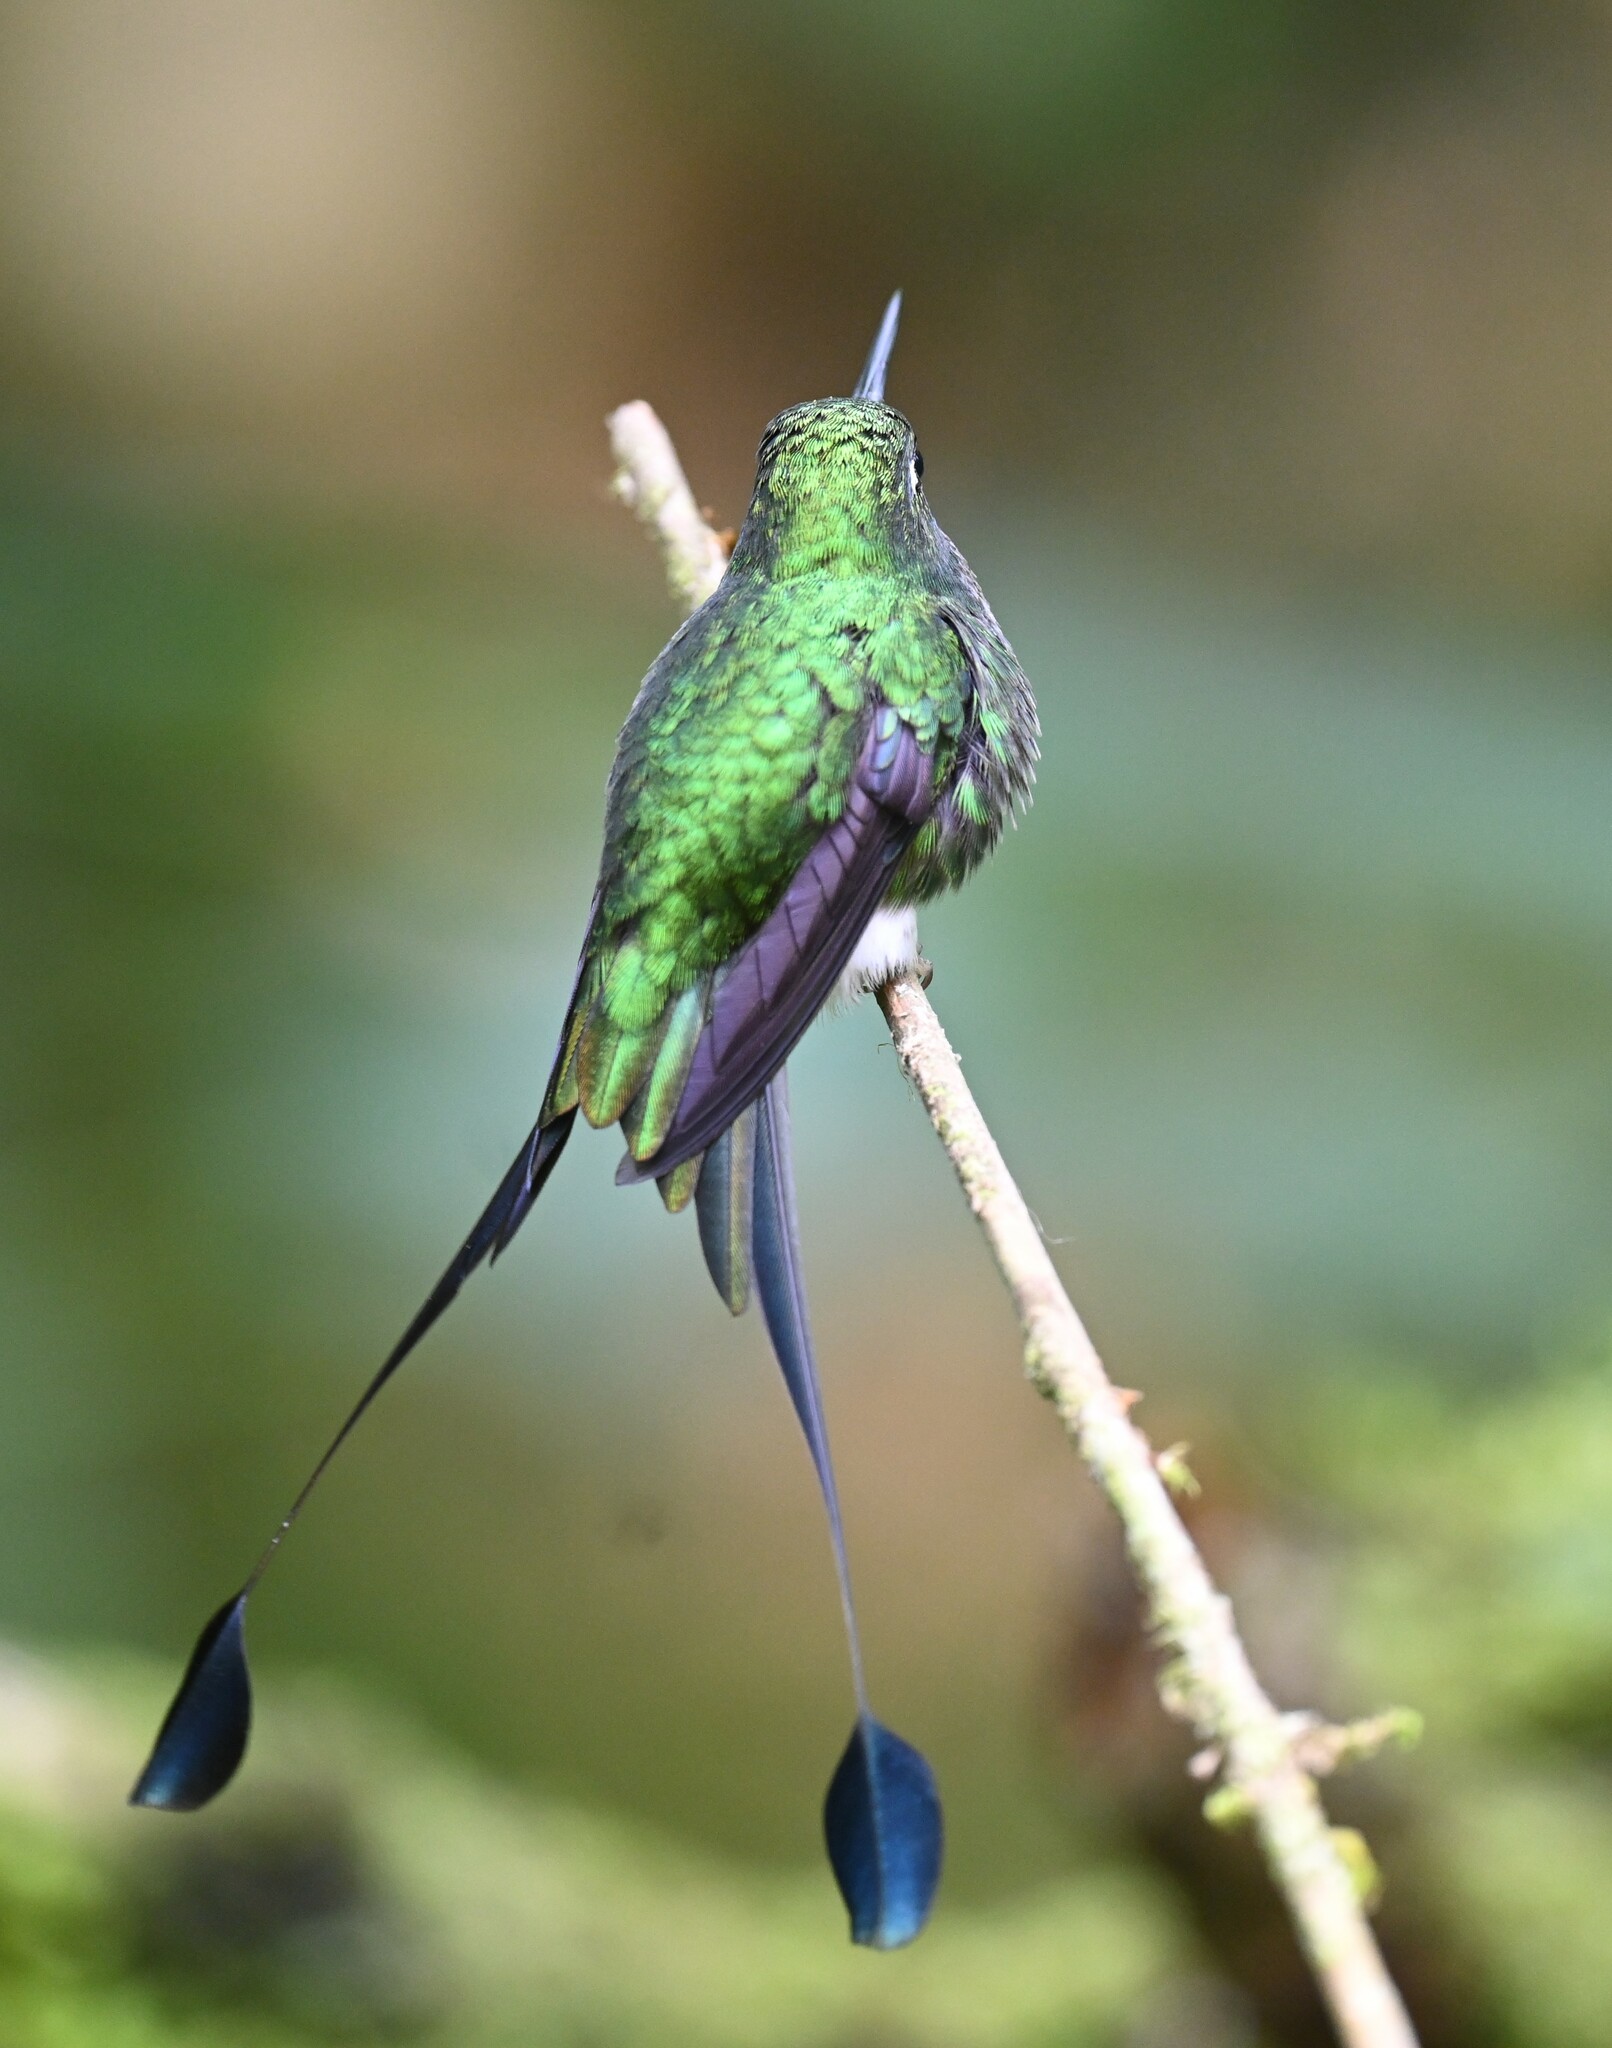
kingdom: Animalia
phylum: Chordata
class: Aves
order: Apodiformes
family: Trochilidae
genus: Ocreatus
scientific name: Ocreatus underwoodii
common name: Booted racket-tail
